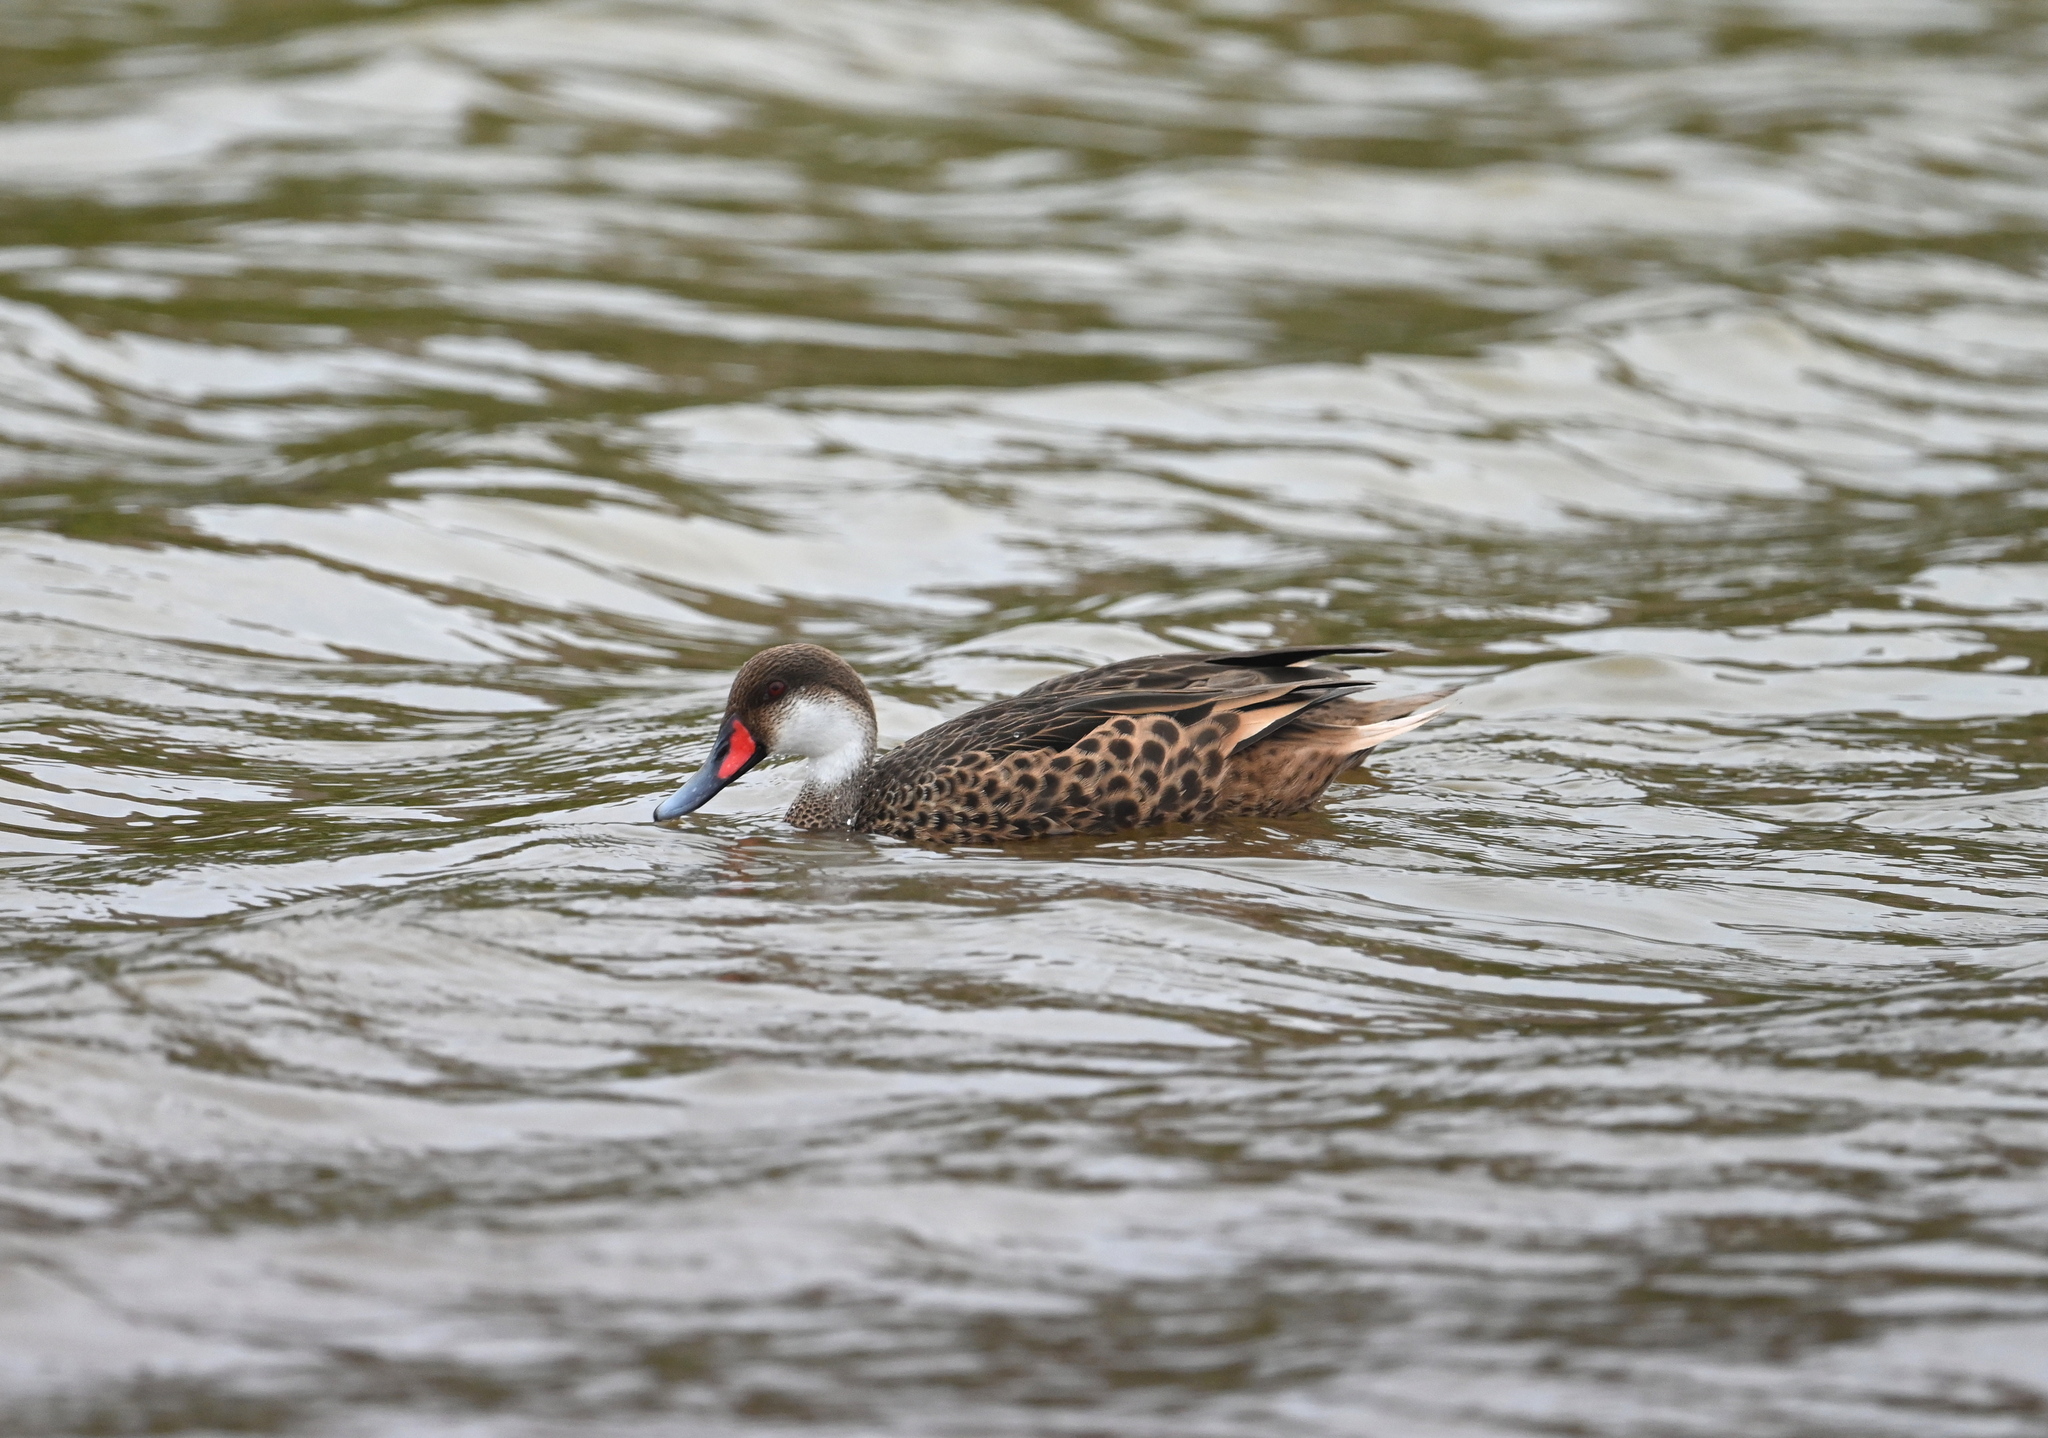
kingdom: Animalia
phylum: Chordata
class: Aves
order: Anseriformes
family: Anatidae
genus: Anas
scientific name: Anas bahamensis
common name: White-cheeked pintail
